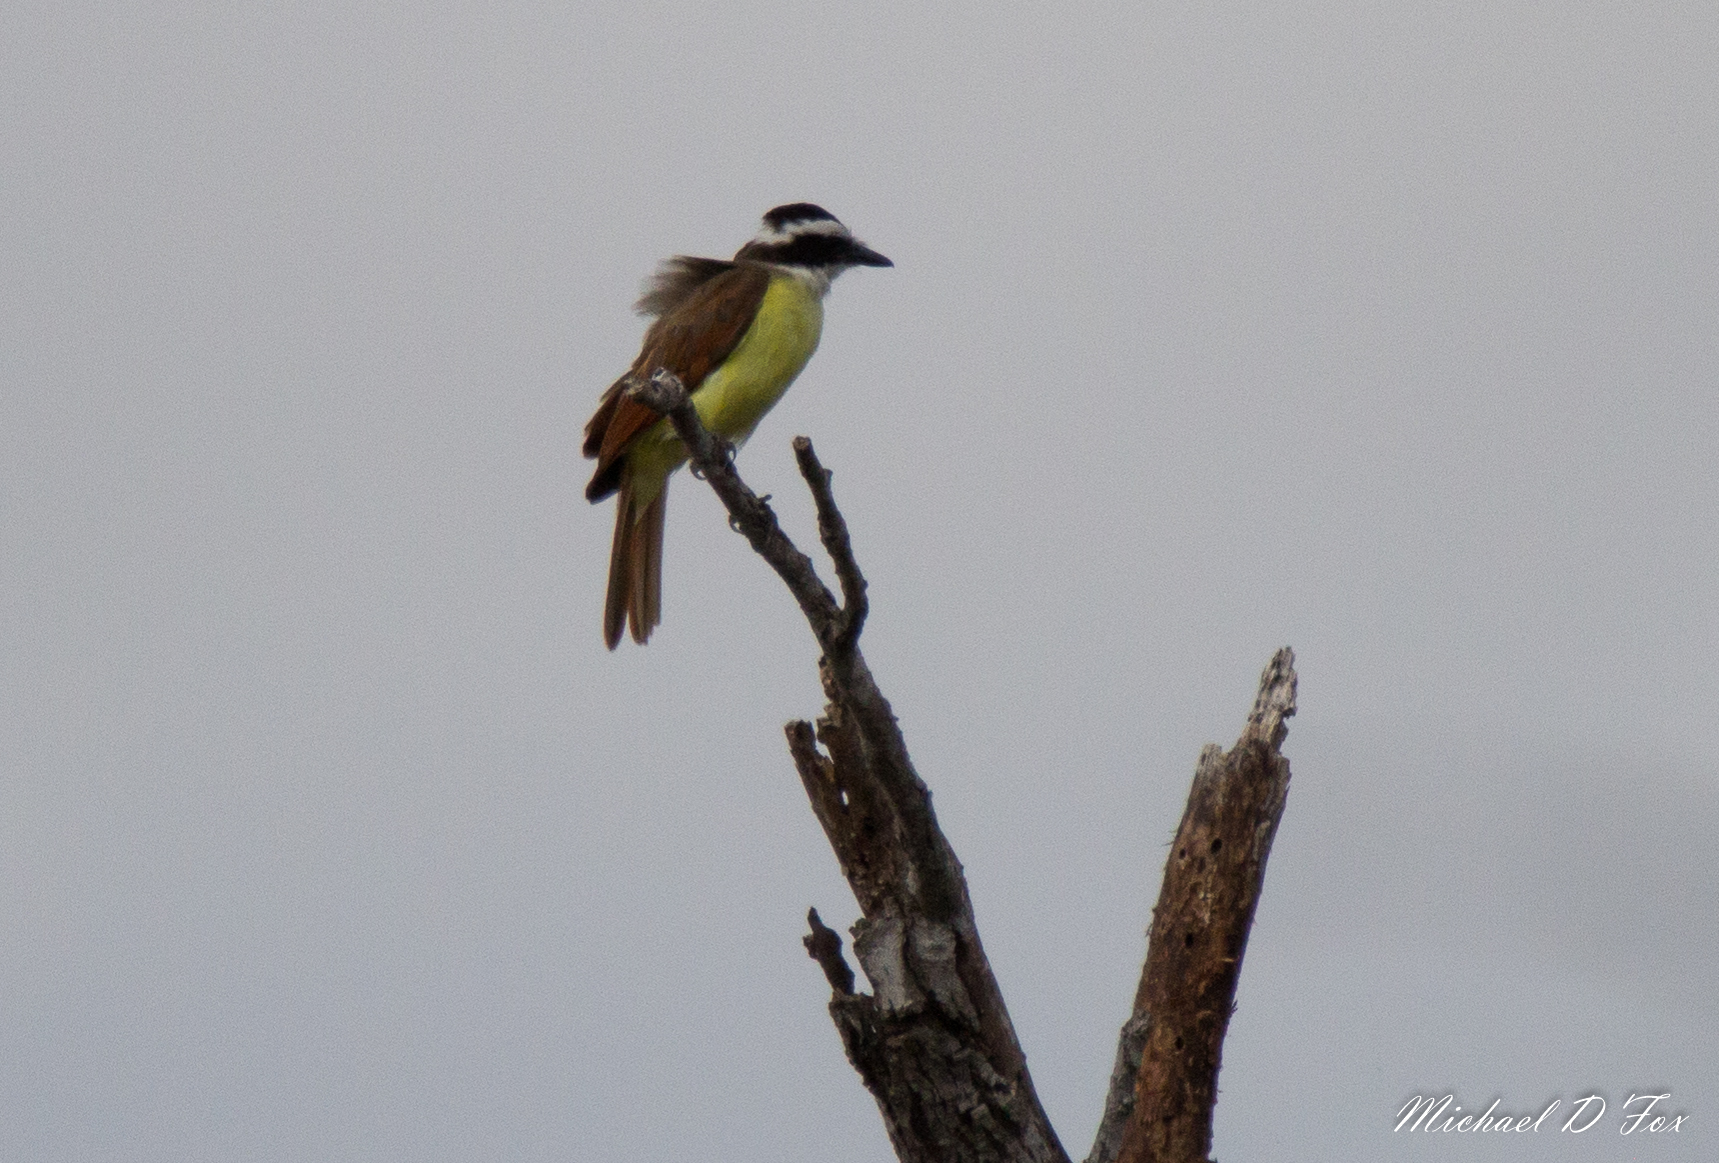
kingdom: Animalia
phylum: Chordata
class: Aves
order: Passeriformes
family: Tyrannidae
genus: Pitangus
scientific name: Pitangus sulphuratus
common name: Great kiskadee
